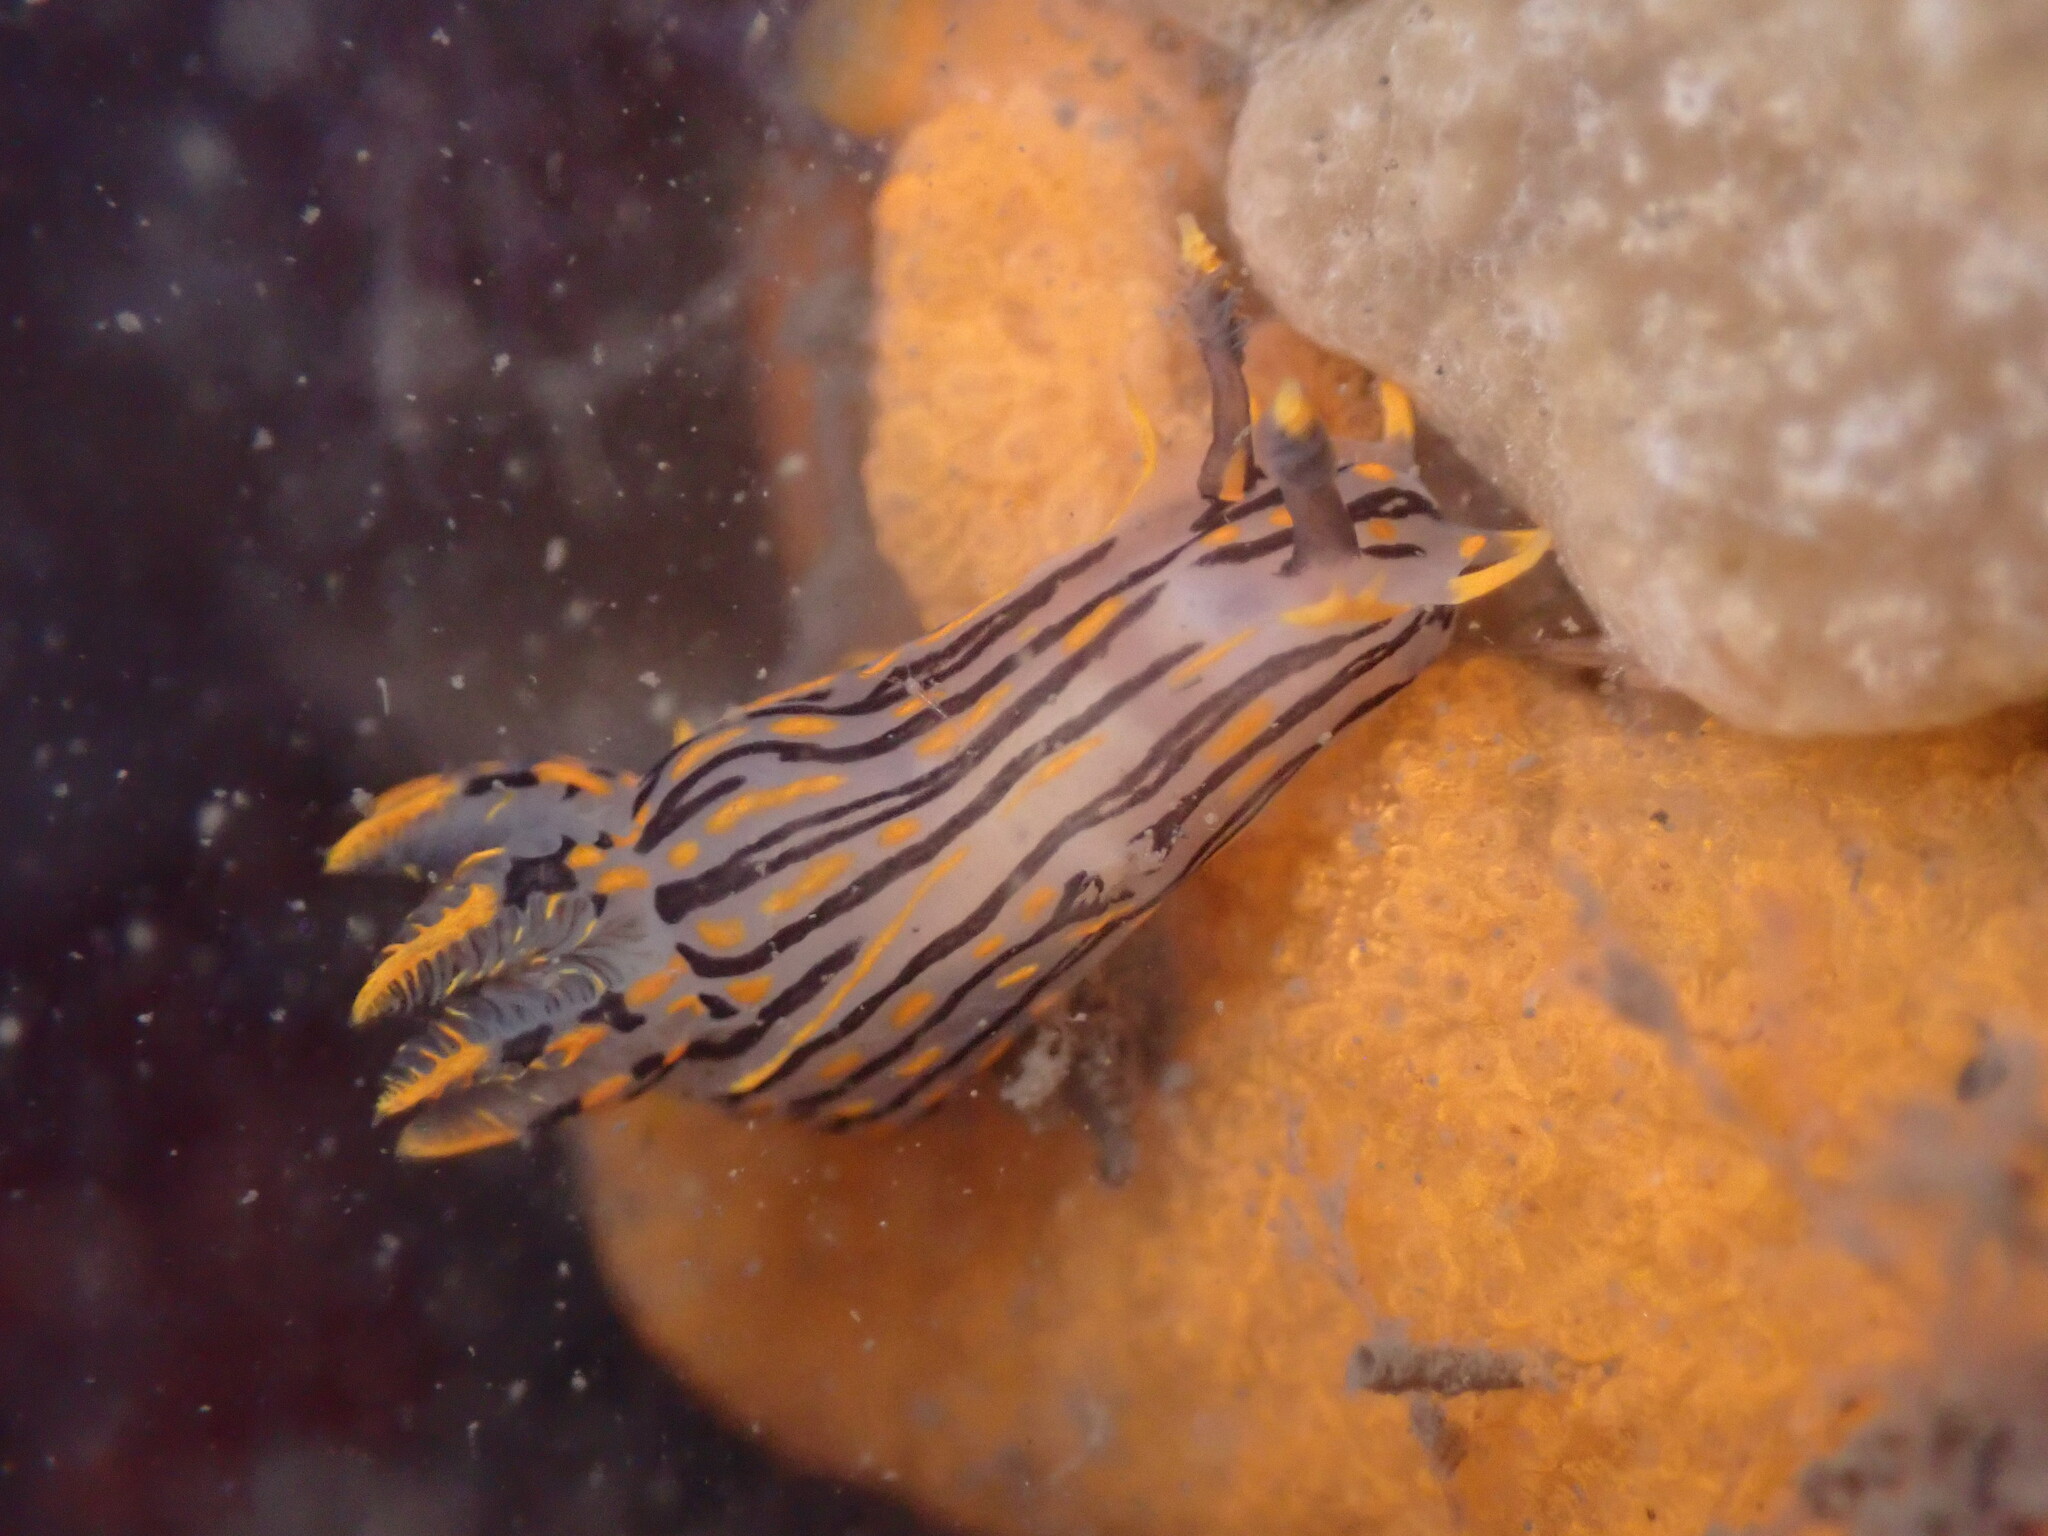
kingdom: Animalia
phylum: Mollusca
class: Gastropoda
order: Nudibranchia
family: Polyceridae
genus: Polycera
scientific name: Polycera atra
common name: Orange-spike polycera
